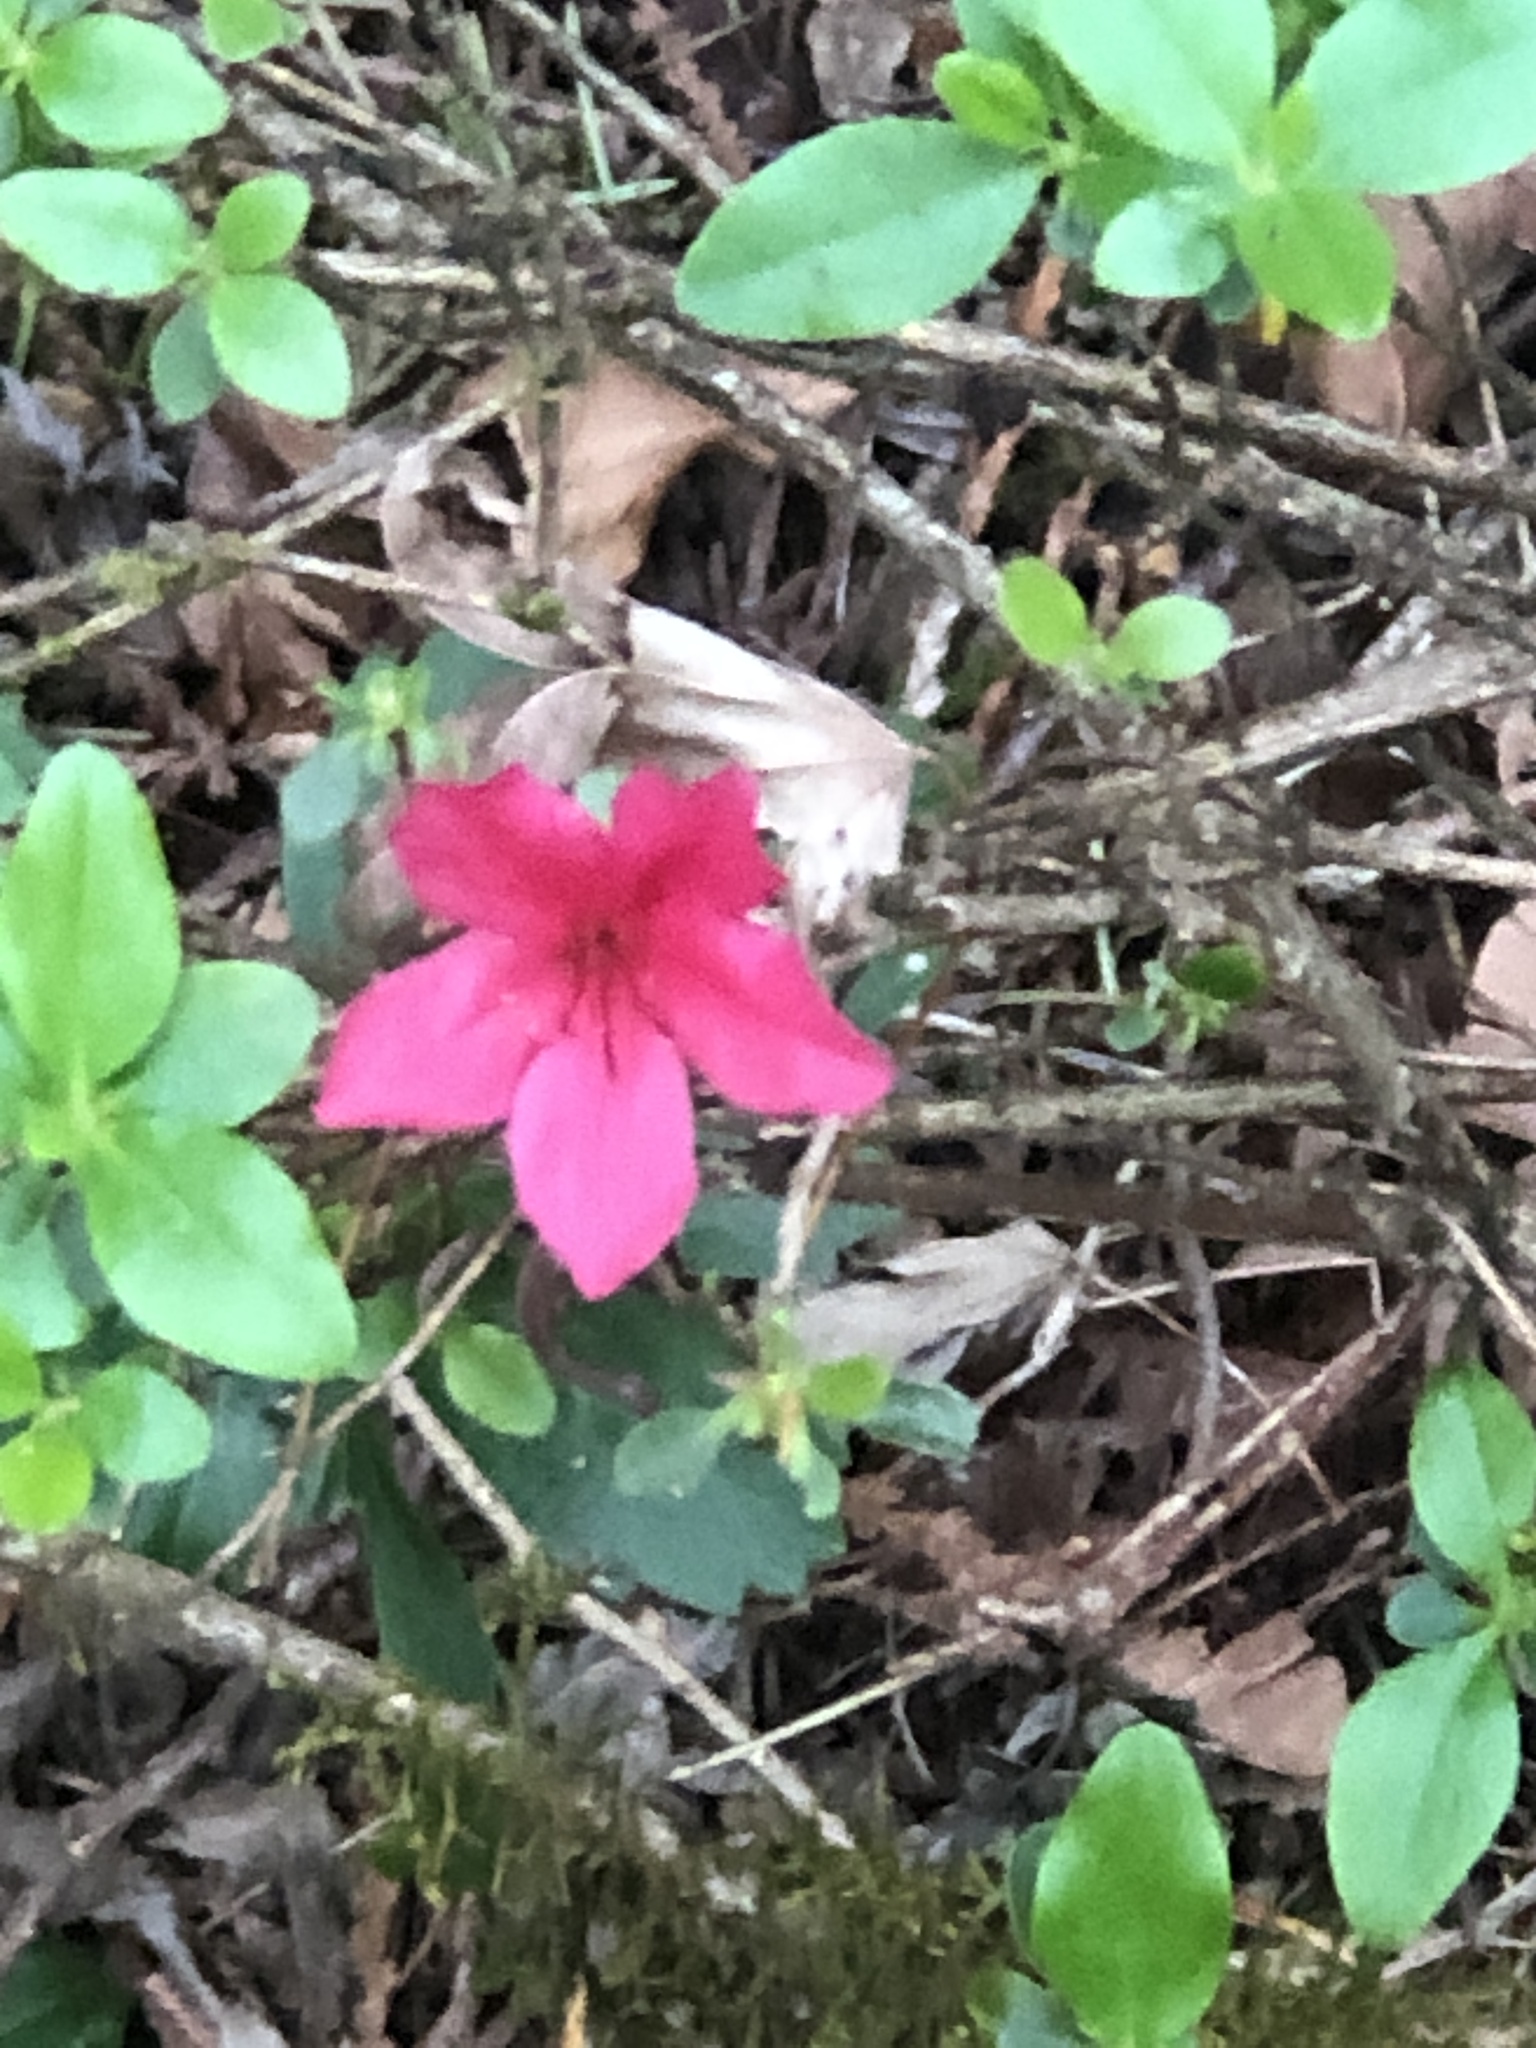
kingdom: Plantae
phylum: Tracheophyta
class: Magnoliopsida
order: Ericales
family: Ericaceae
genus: Rhododendron
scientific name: Rhododendron hybridum
